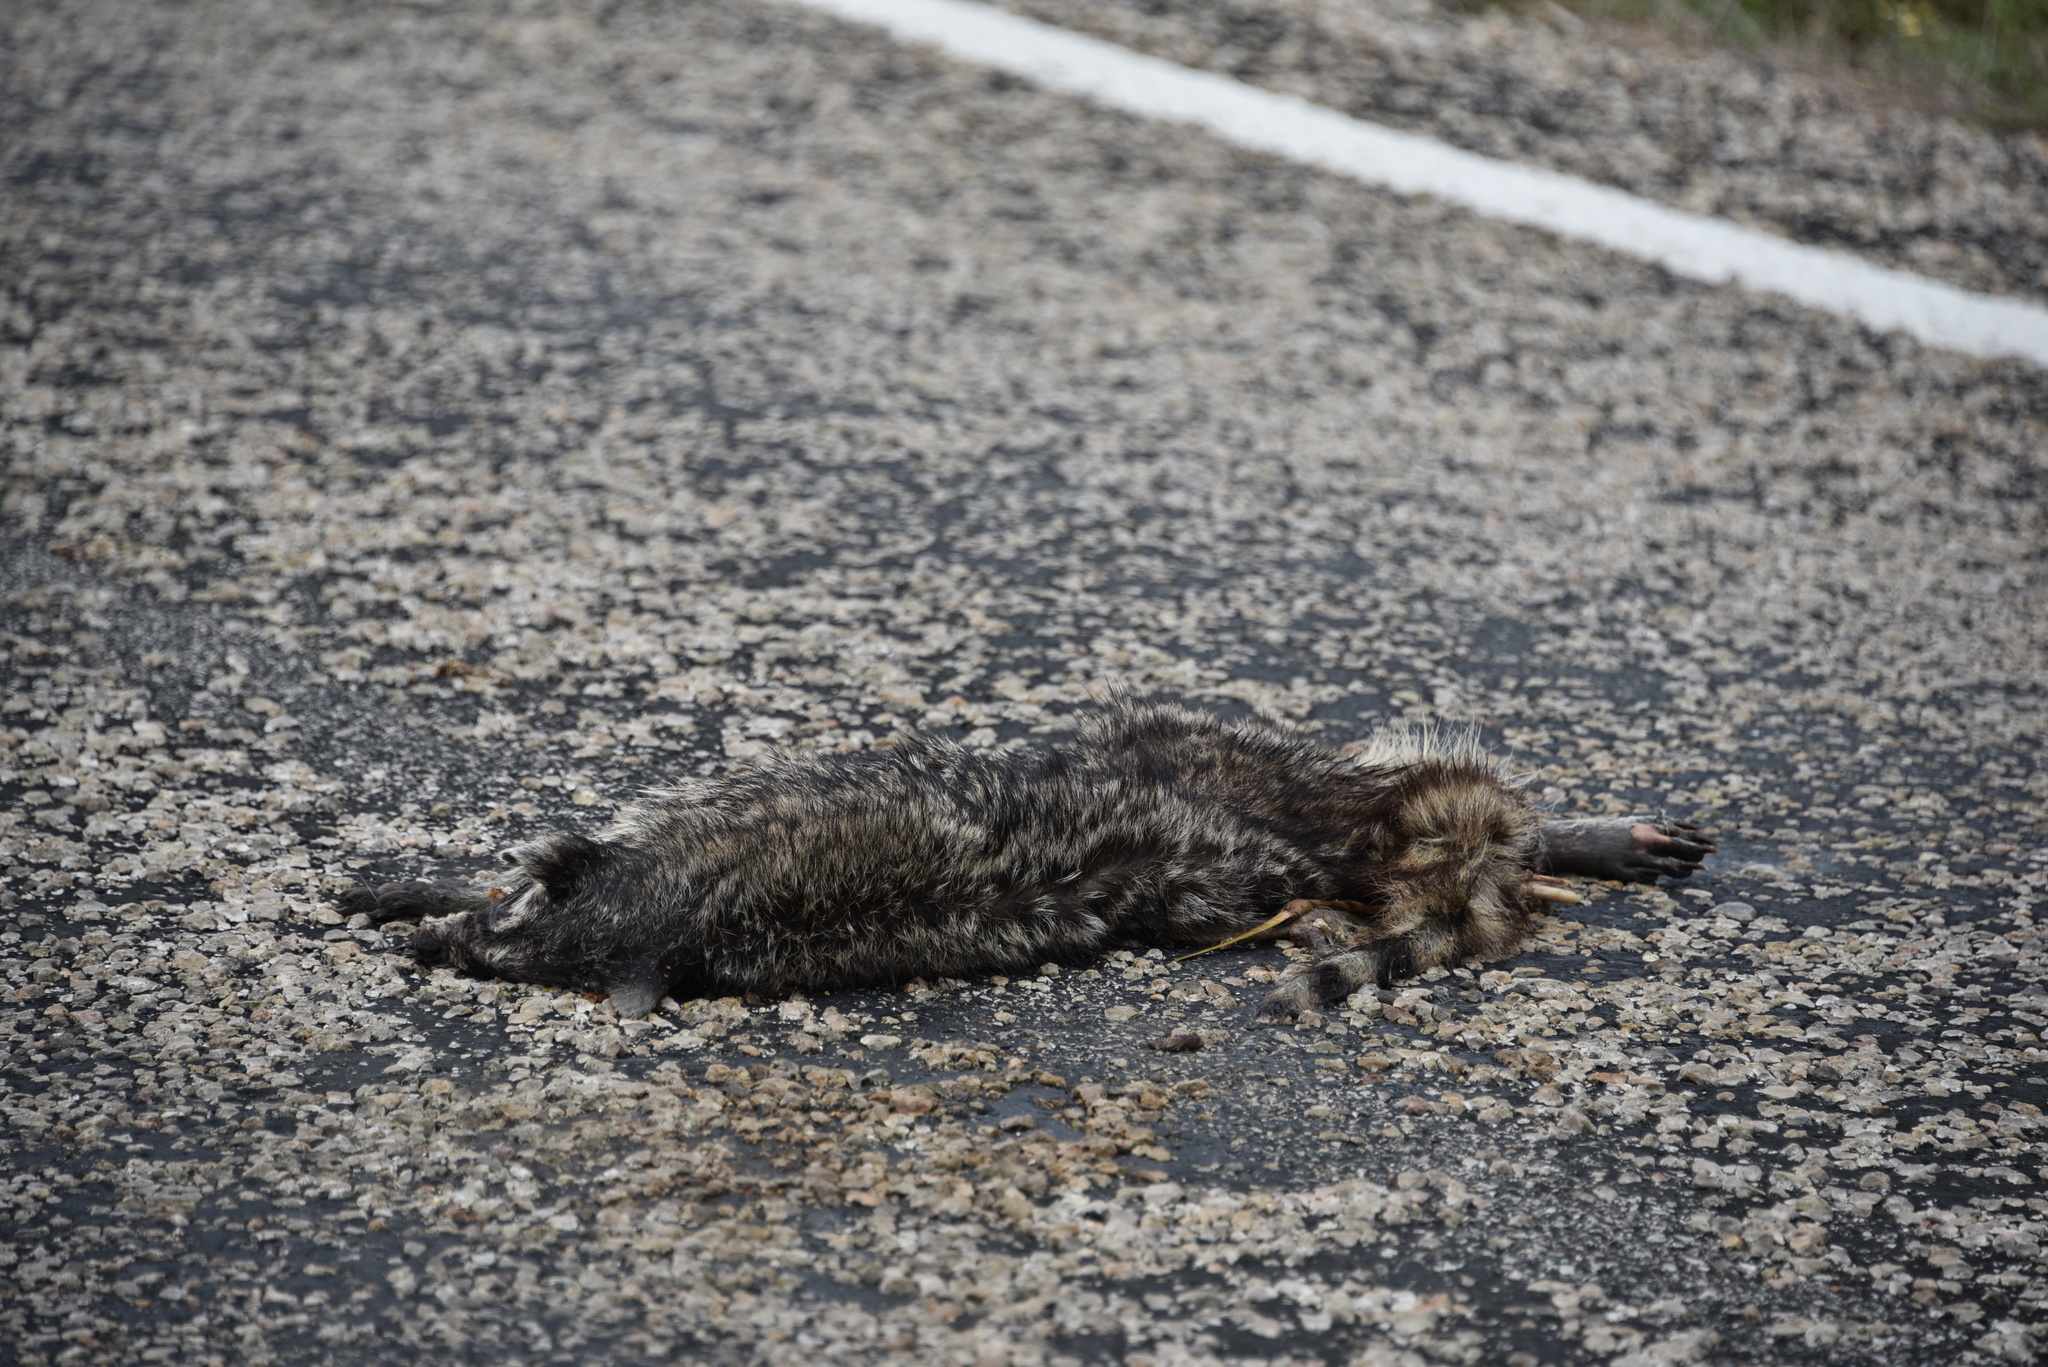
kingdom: Animalia
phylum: Chordata
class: Mammalia
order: Carnivora
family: Procyonidae
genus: Procyon
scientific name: Procyon lotor
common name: Raccoon
